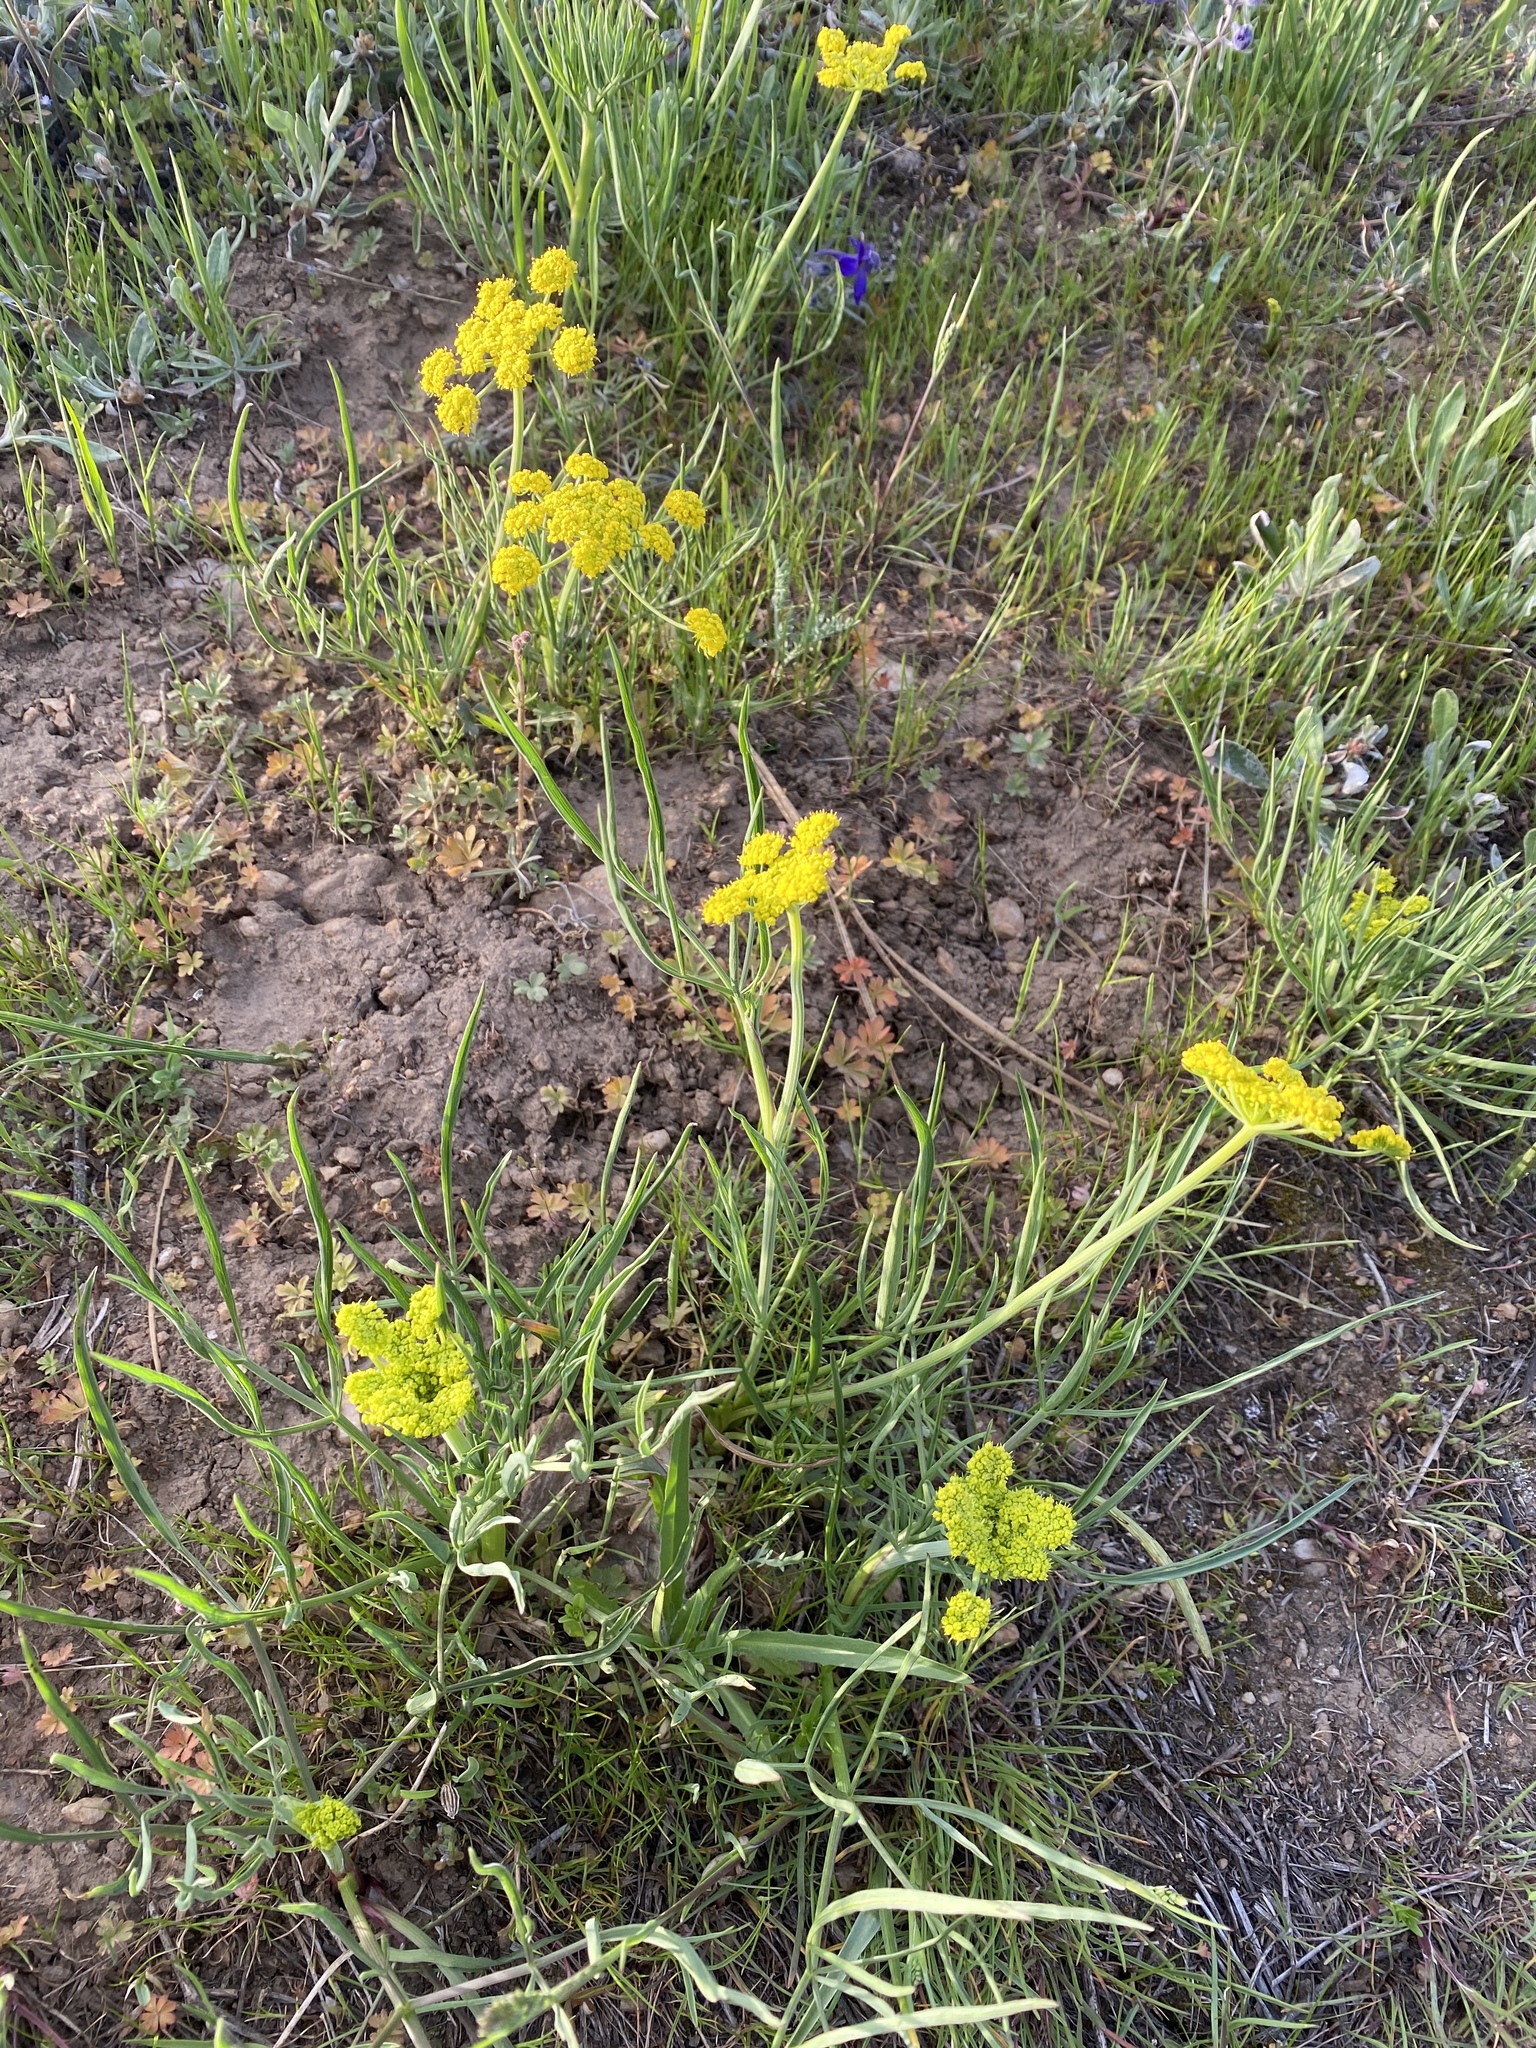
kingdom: Plantae
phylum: Tracheophyta
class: Magnoliopsida
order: Apiales
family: Apiaceae
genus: Lomatium
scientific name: Lomatium triternatum
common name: Ternate lomatium
